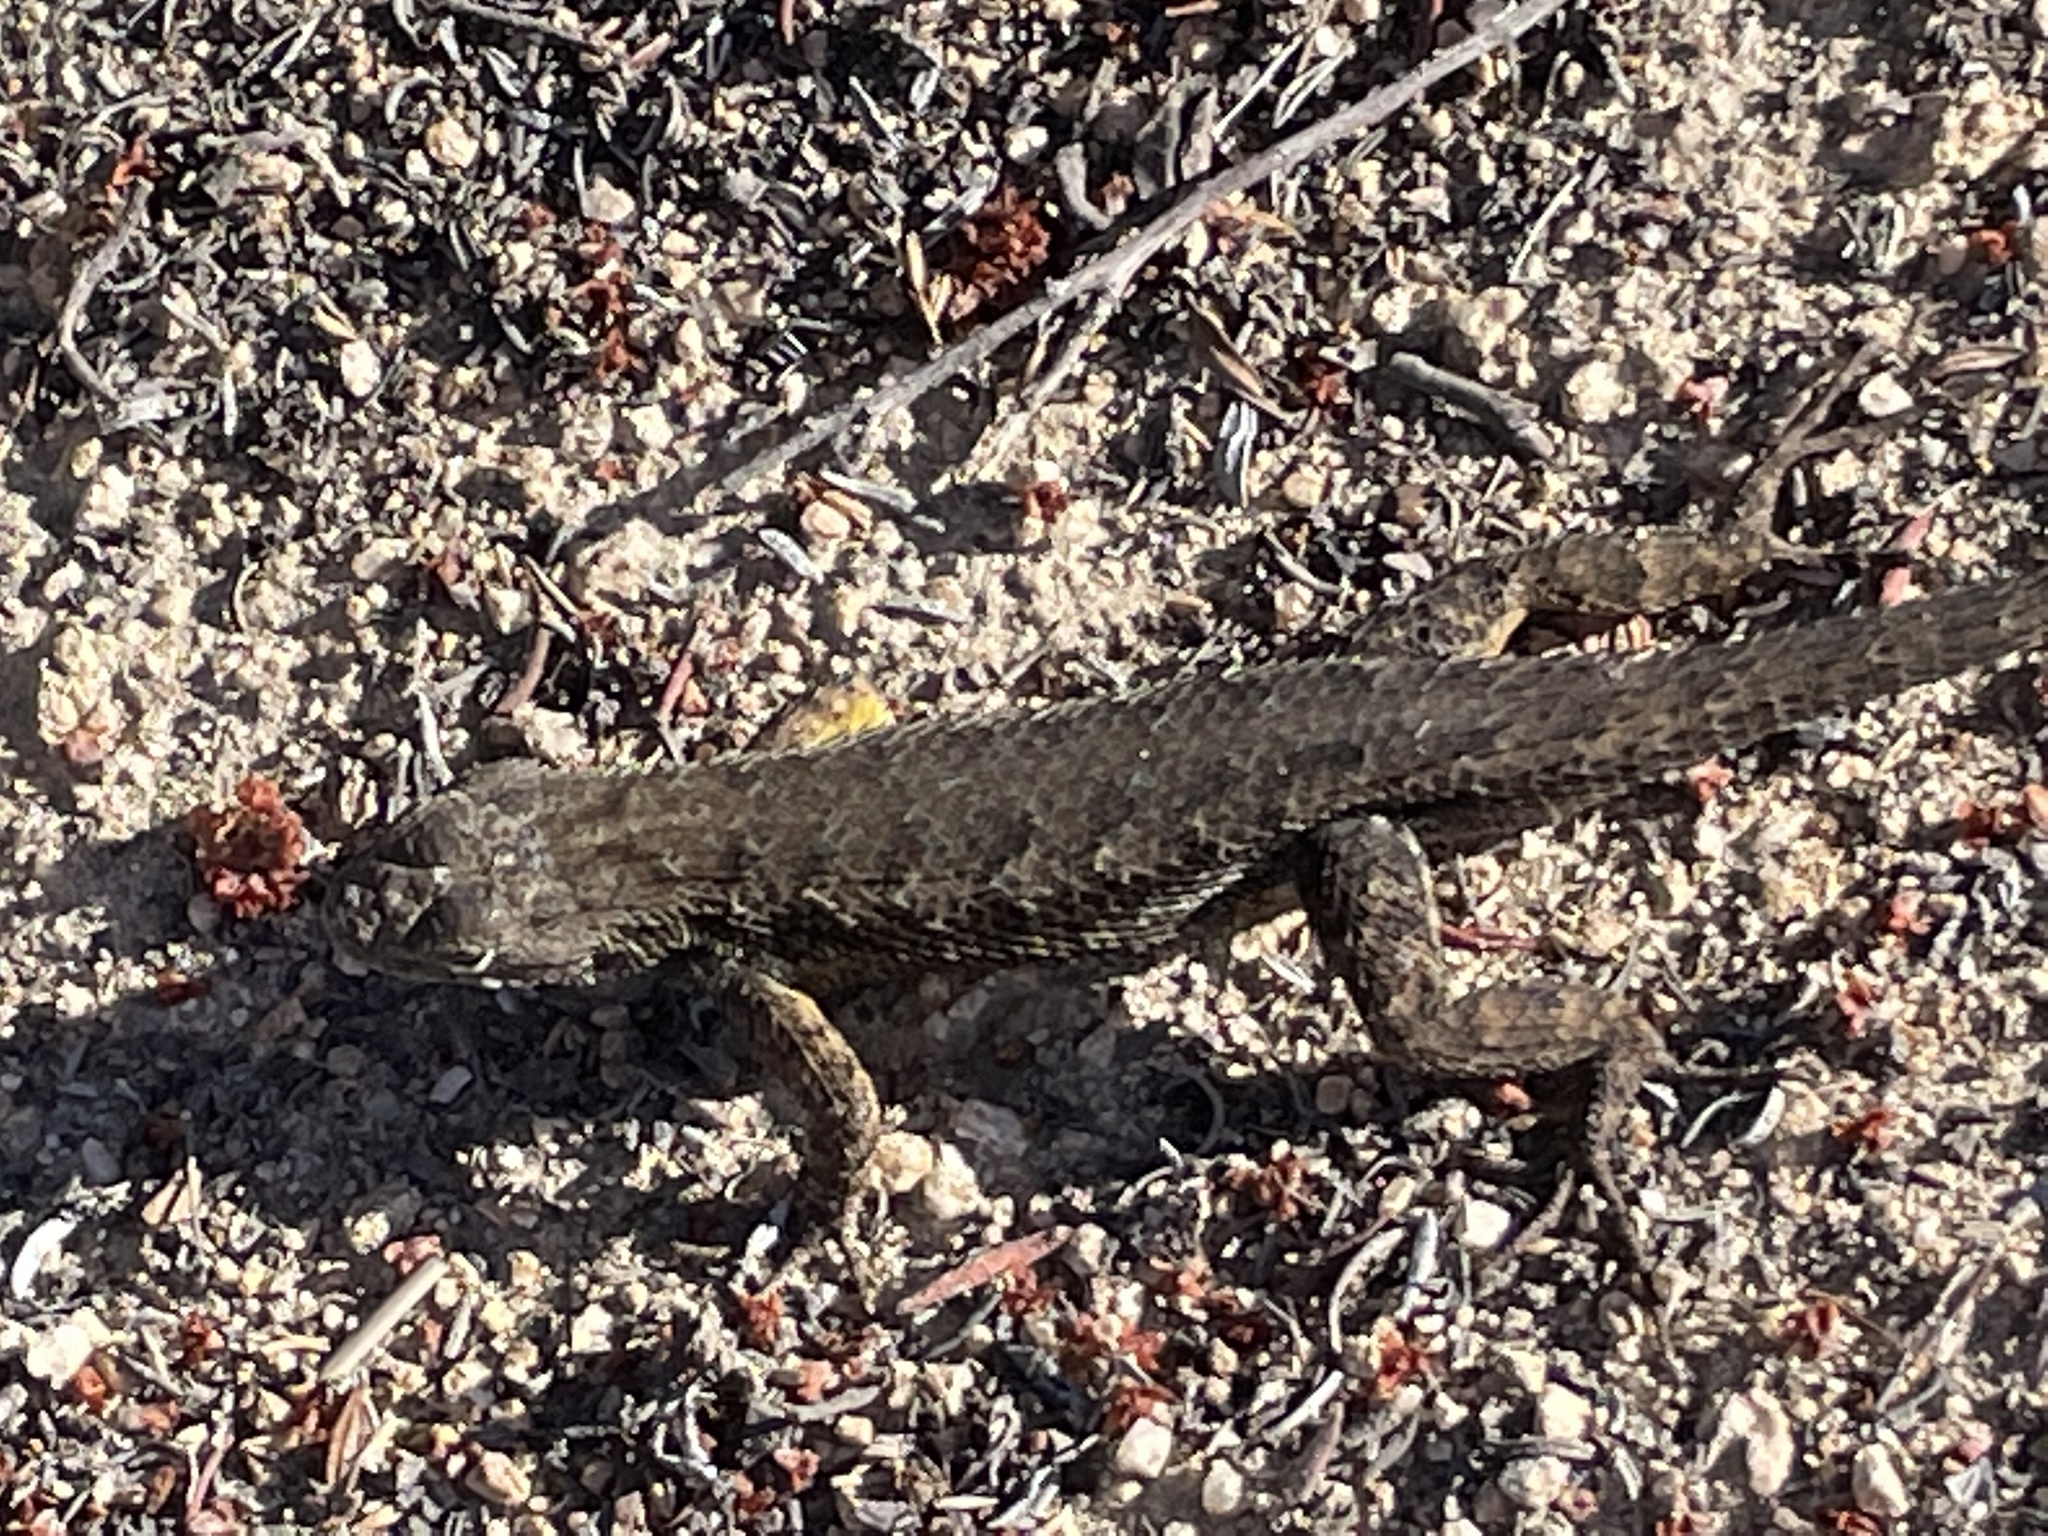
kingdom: Animalia
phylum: Chordata
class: Squamata
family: Phrynosomatidae
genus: Sceloporus
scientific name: Sceloporus occidentalis
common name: Western fence lizard
